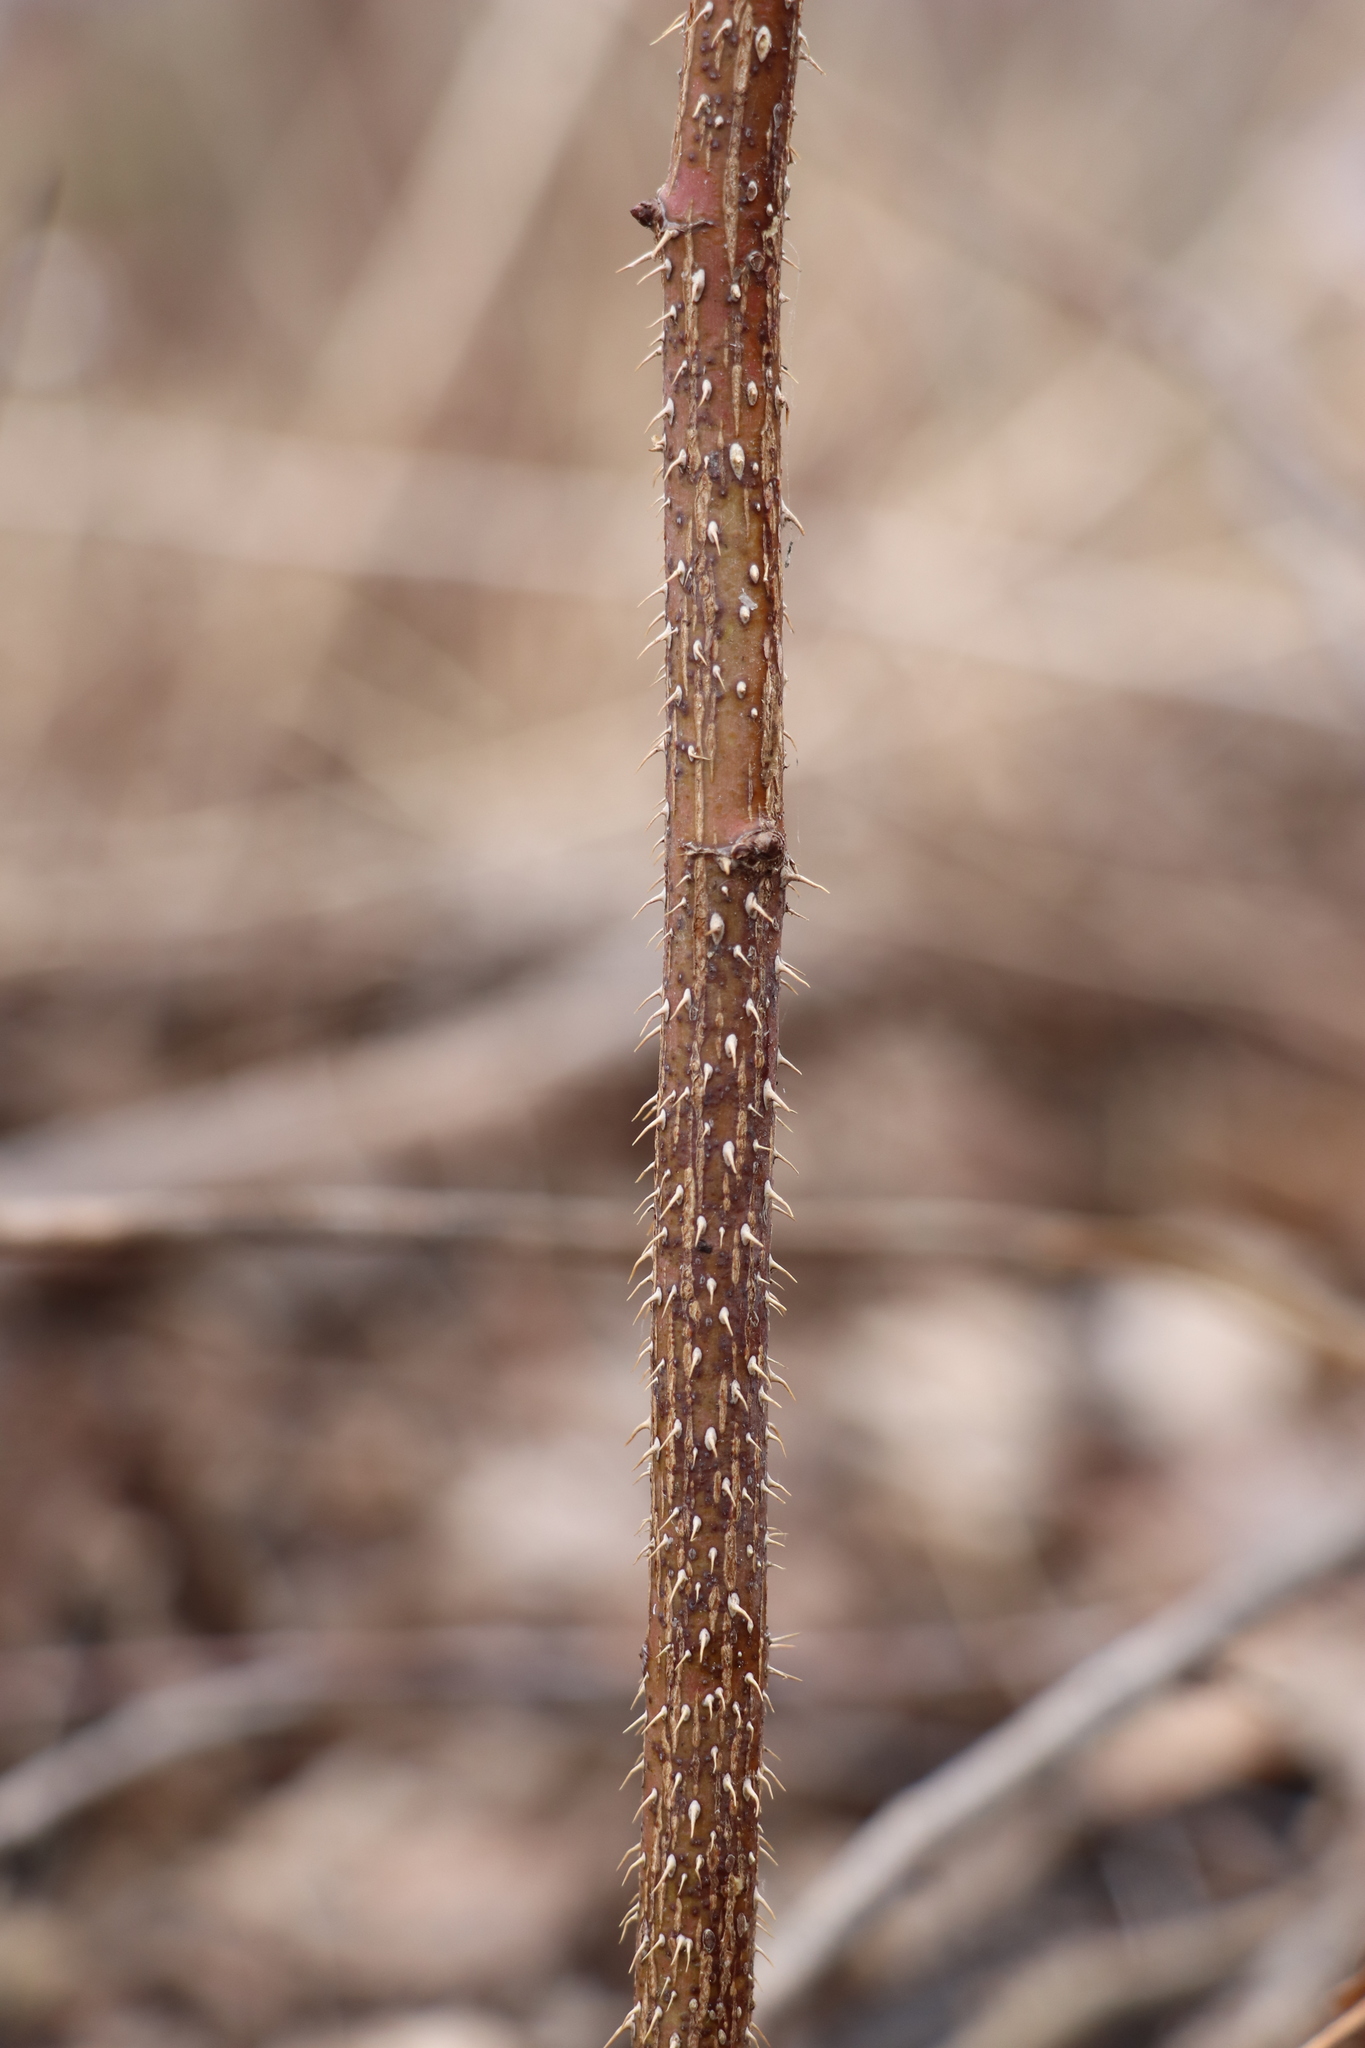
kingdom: Plantae
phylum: Tracheophyta
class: Magnoliopsida
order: Rosales
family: Rosaceae
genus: Rosa
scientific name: Rosa majalis
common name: Cinnamon rose
